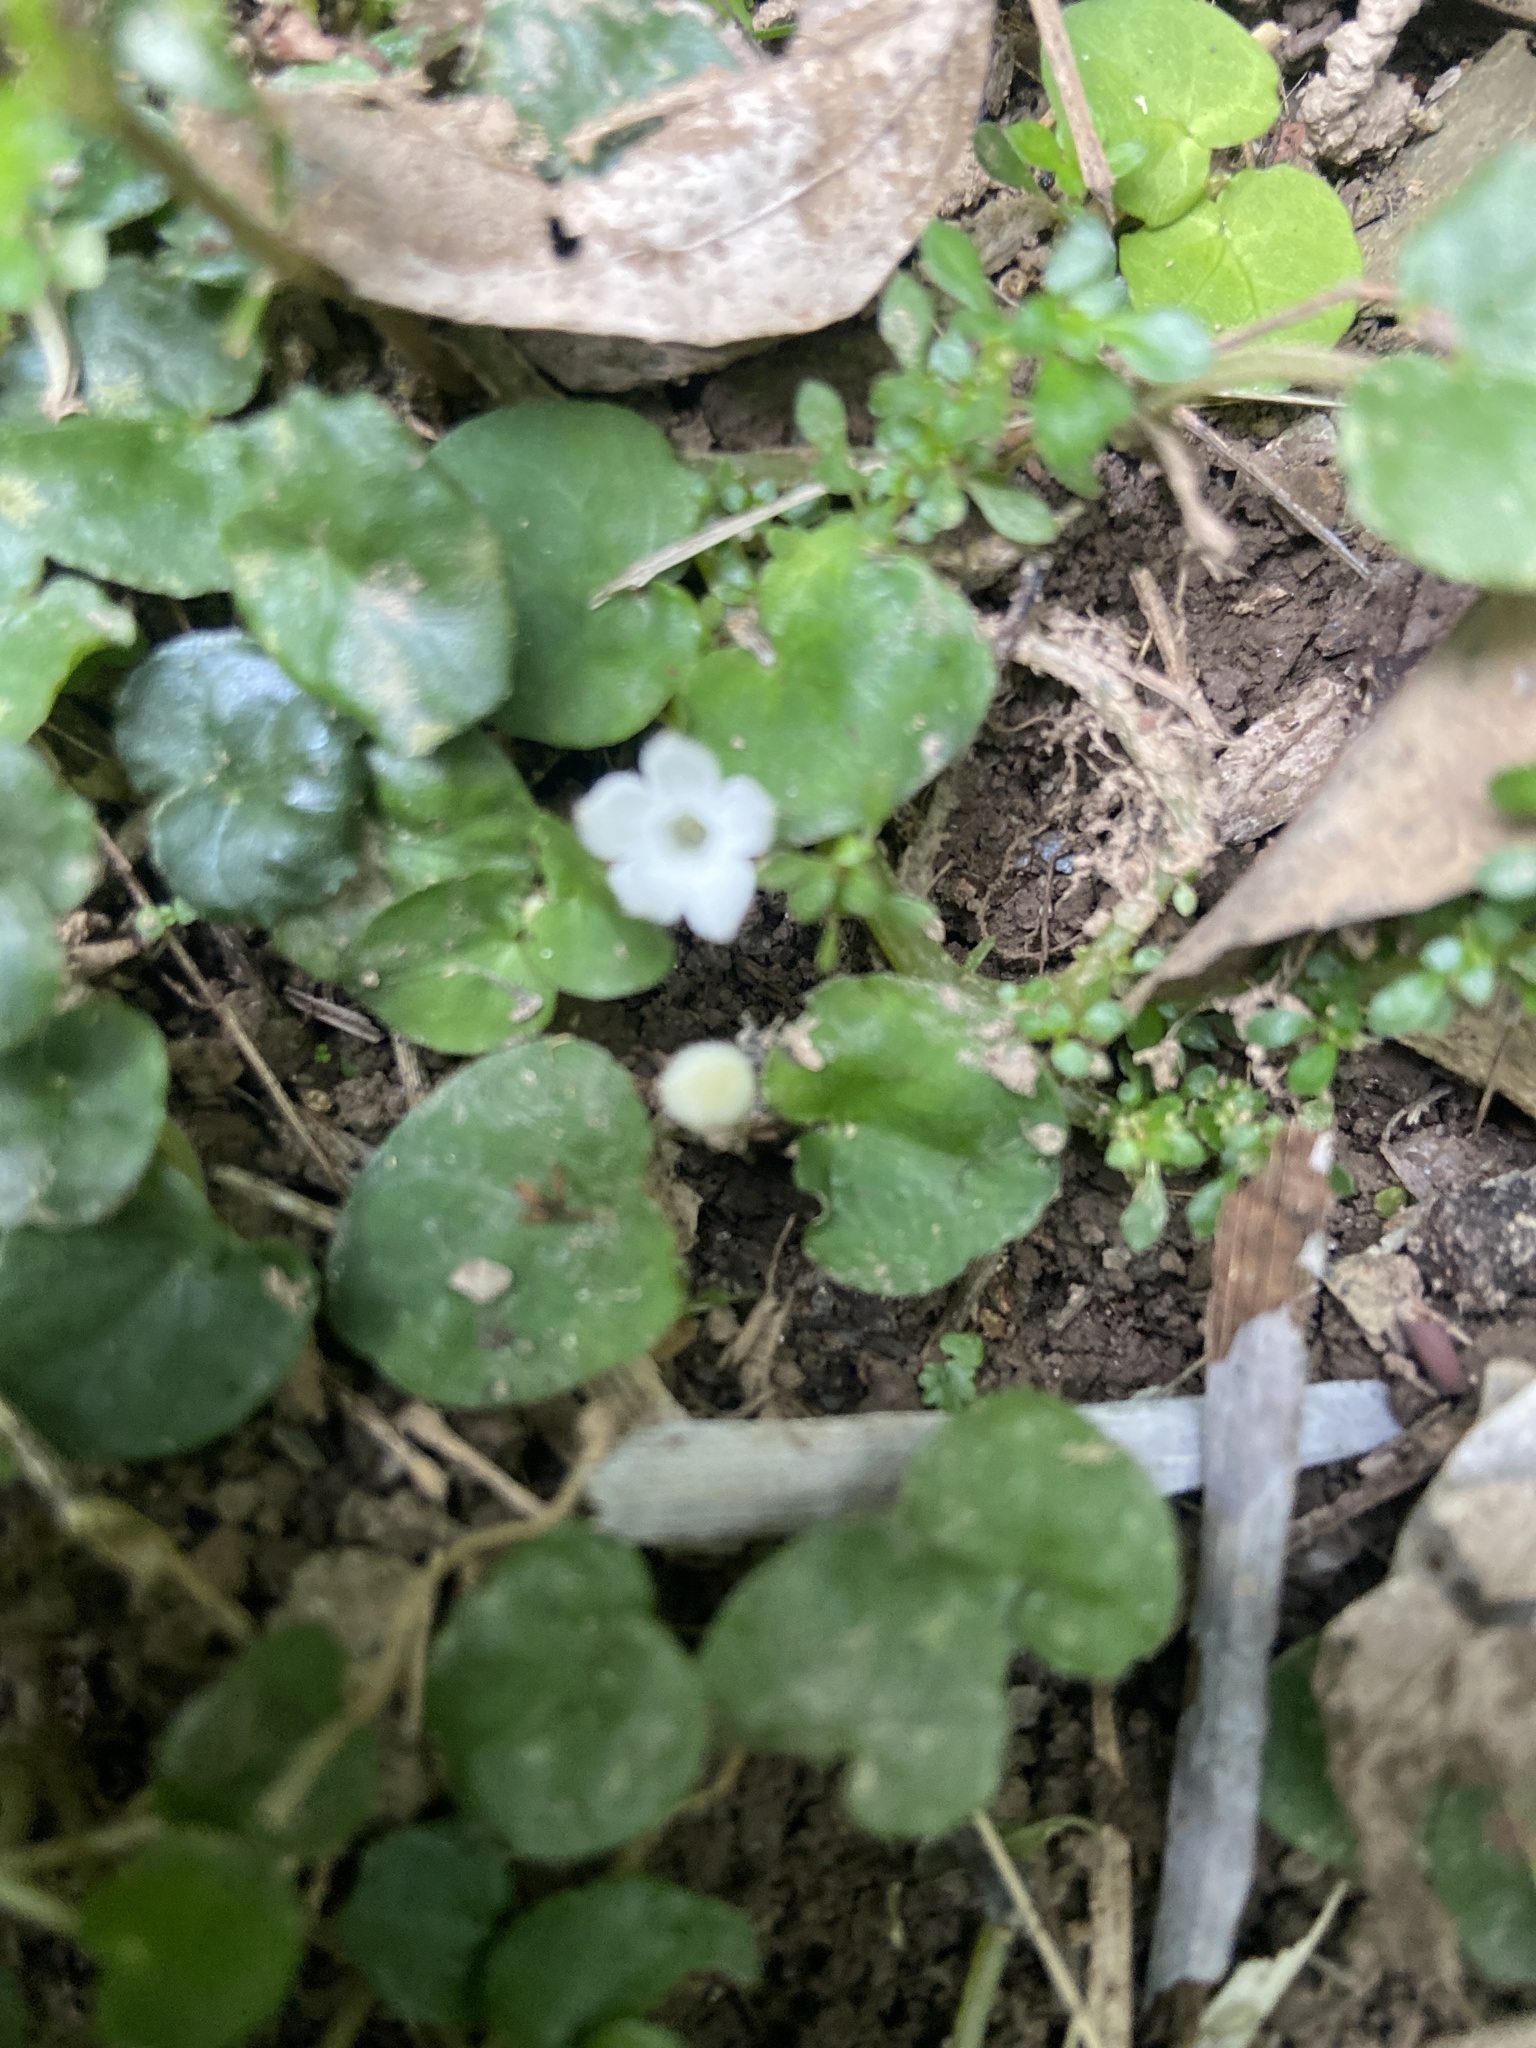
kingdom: Plantae
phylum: Tracheophyta
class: Magnoliopsida
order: Gentianales
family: Rubiaceae
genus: Geophila
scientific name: Geophila herbacea
